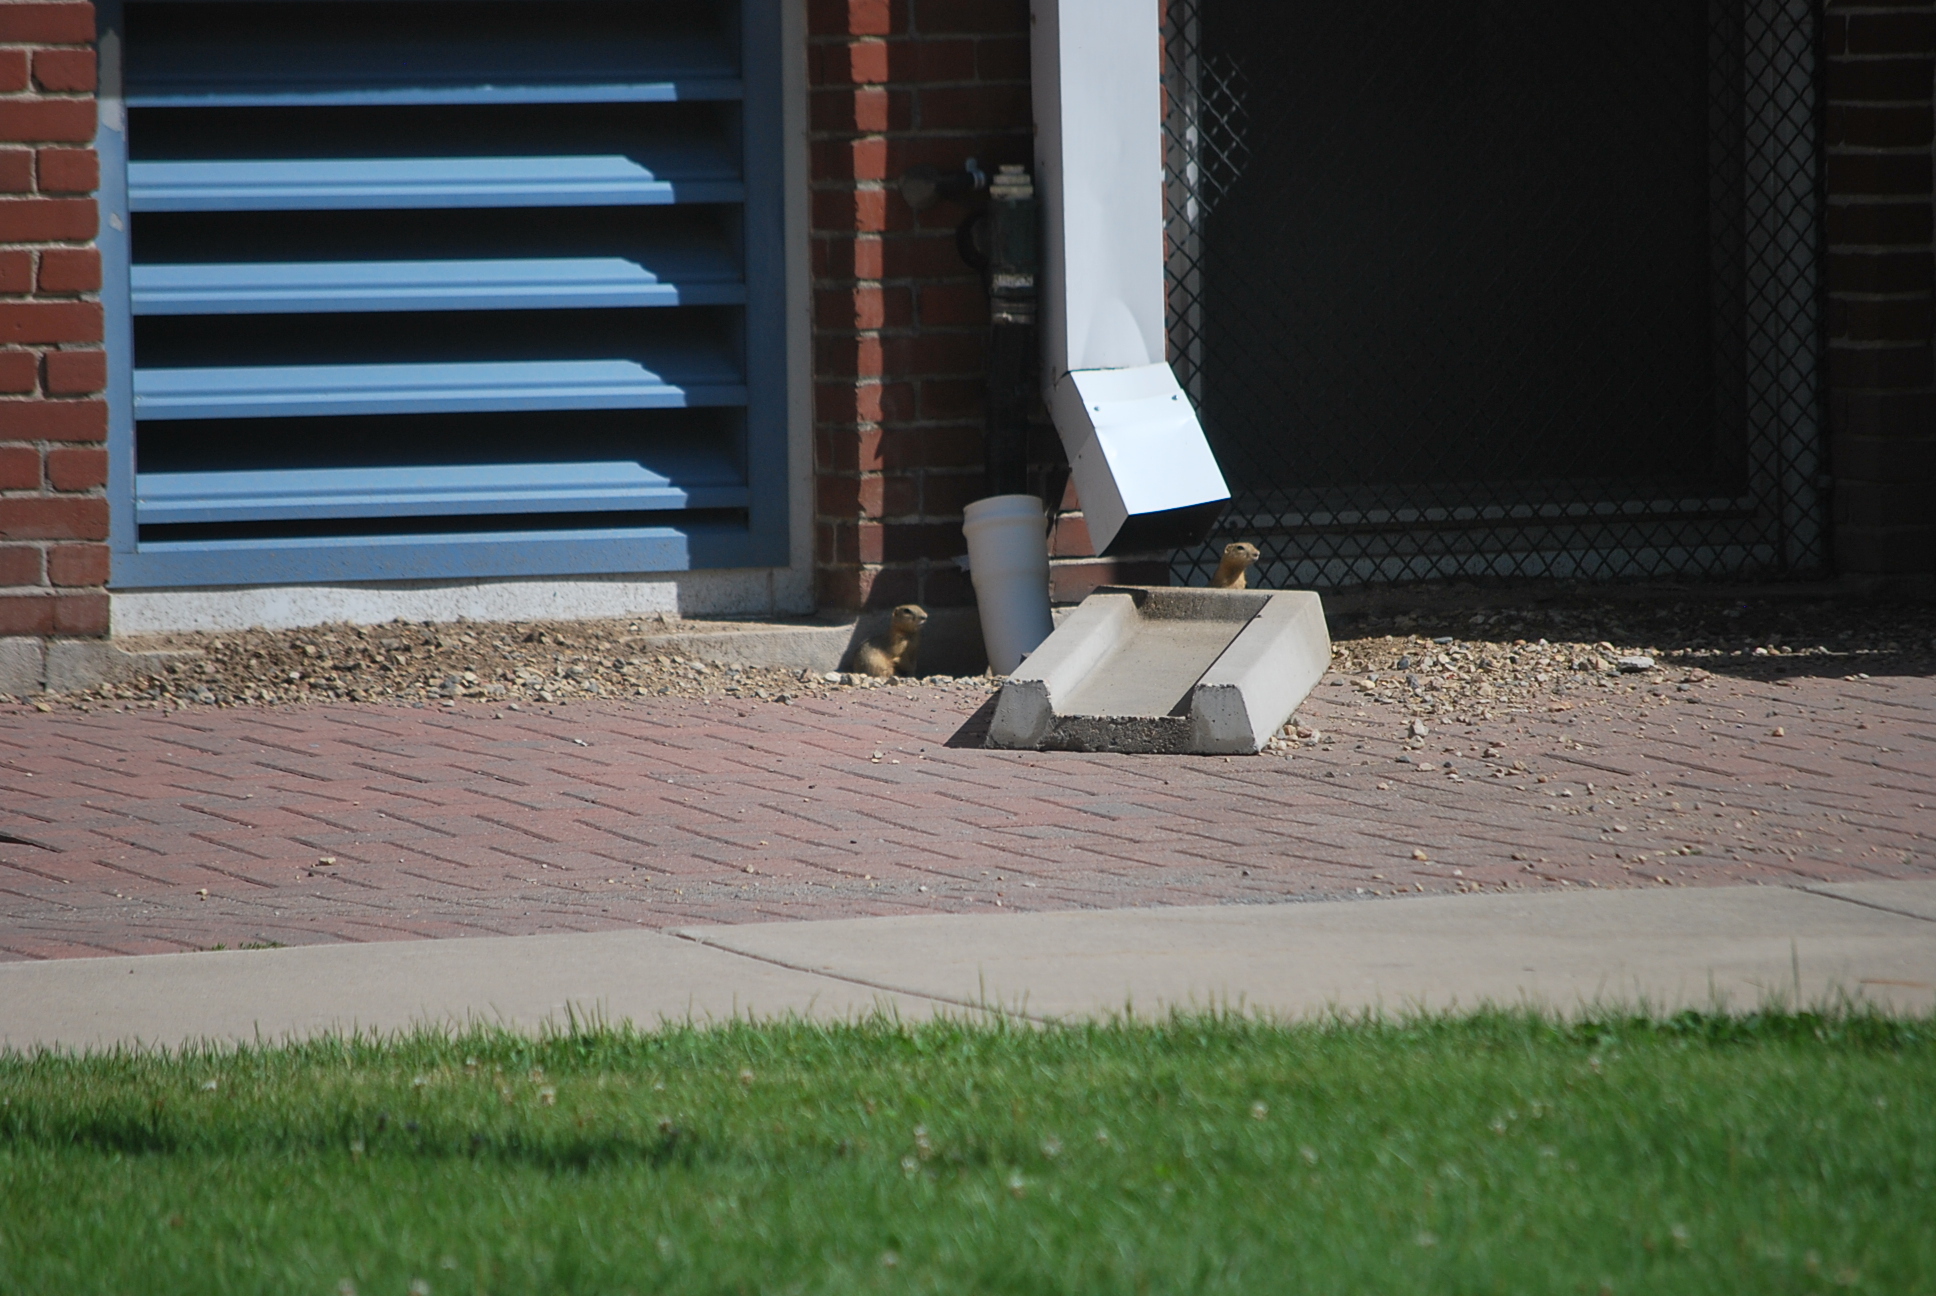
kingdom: Animalia
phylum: Chordata
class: Mammalia
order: Rodentia
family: Sciuridae
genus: Urocitellus
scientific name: Urocitellus richardsonii
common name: Richardson's ground squirrel
